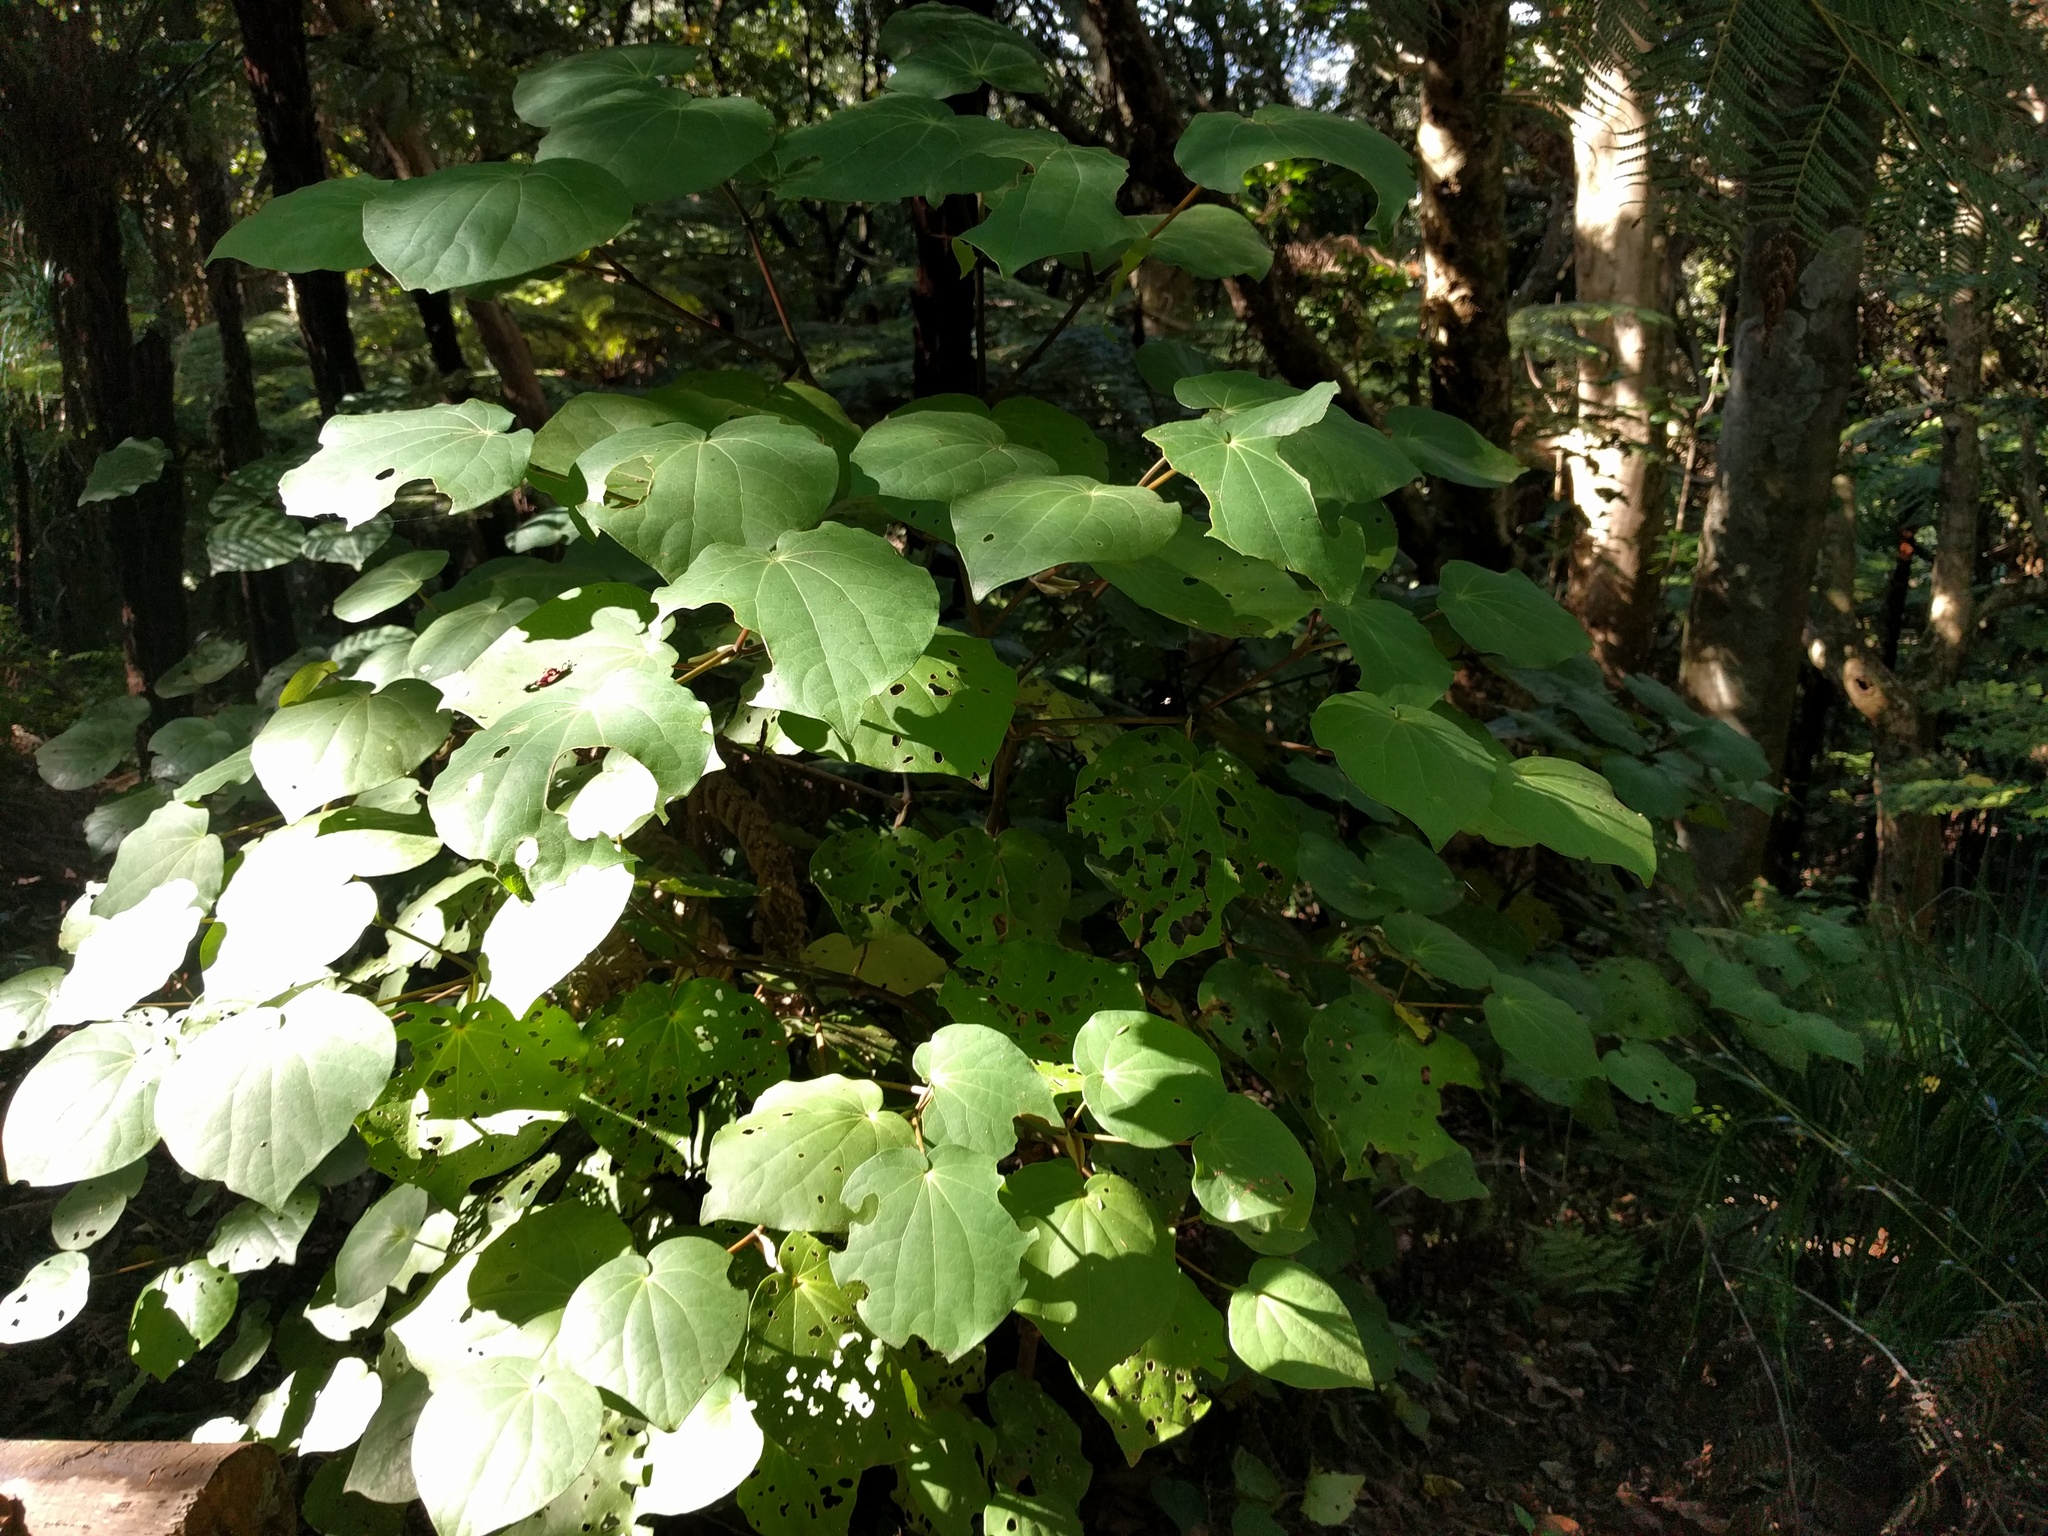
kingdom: Plantae
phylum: Tracheophyta
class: Magnoliopsida
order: Piperales
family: Piperaceae
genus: Macropiper
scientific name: Macropiper excelsum
